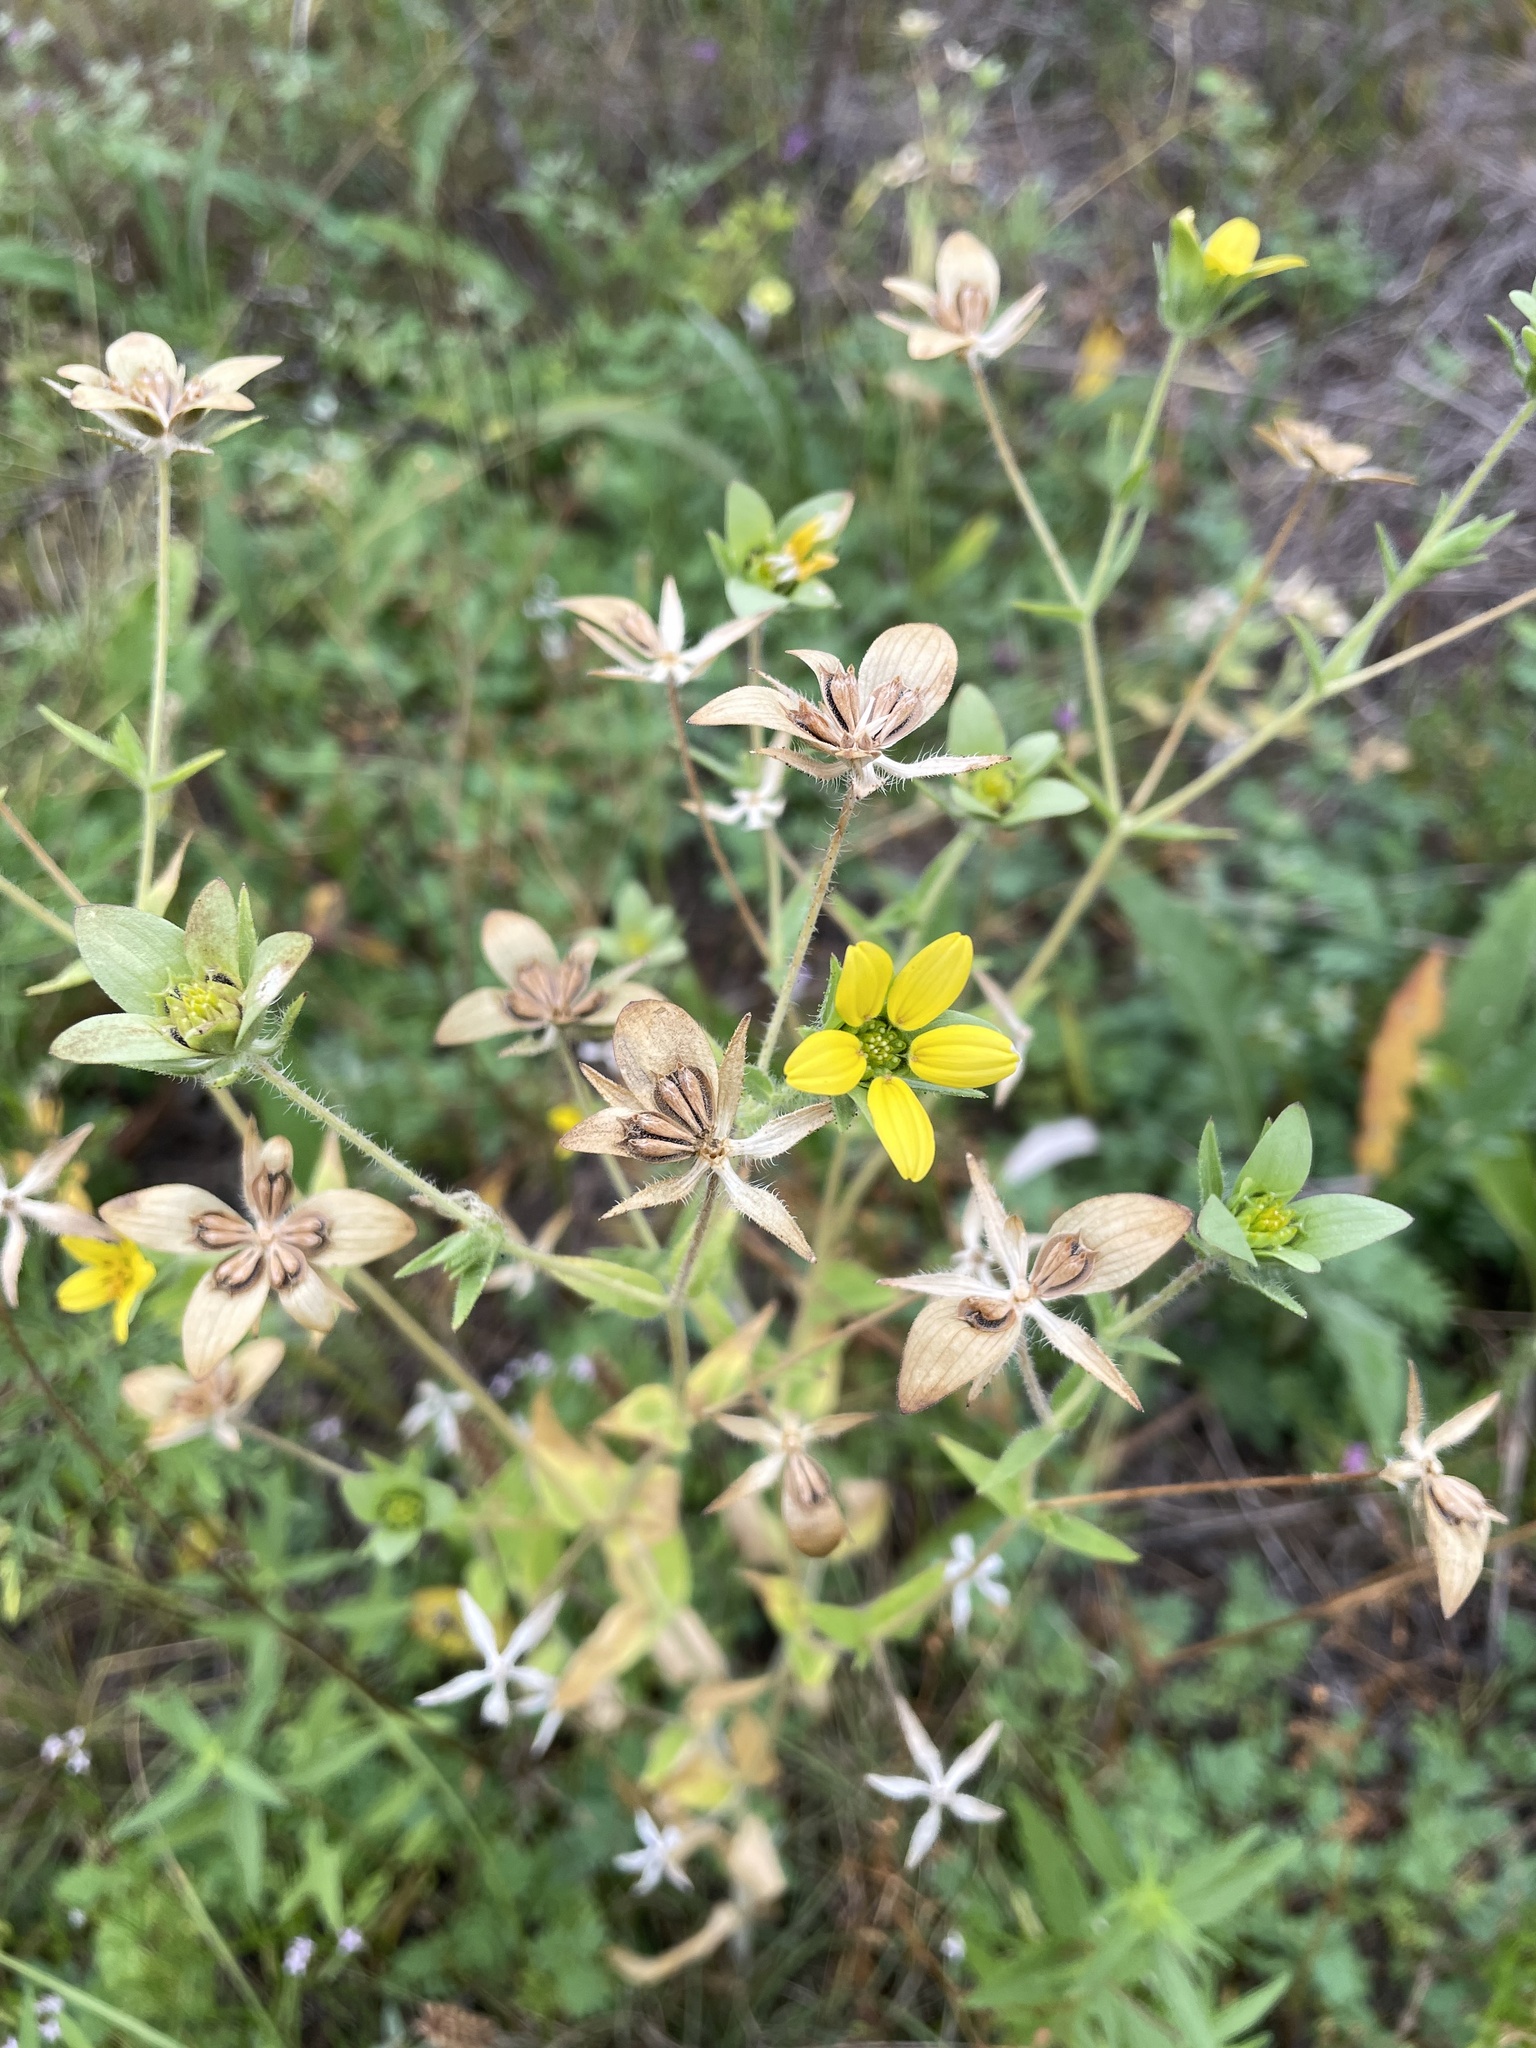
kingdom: Plantae
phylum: Tracheophyta
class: Magnoliopsida
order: Asterales
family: Asteraceae
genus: Lindheimera
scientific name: Lindheimera texana
